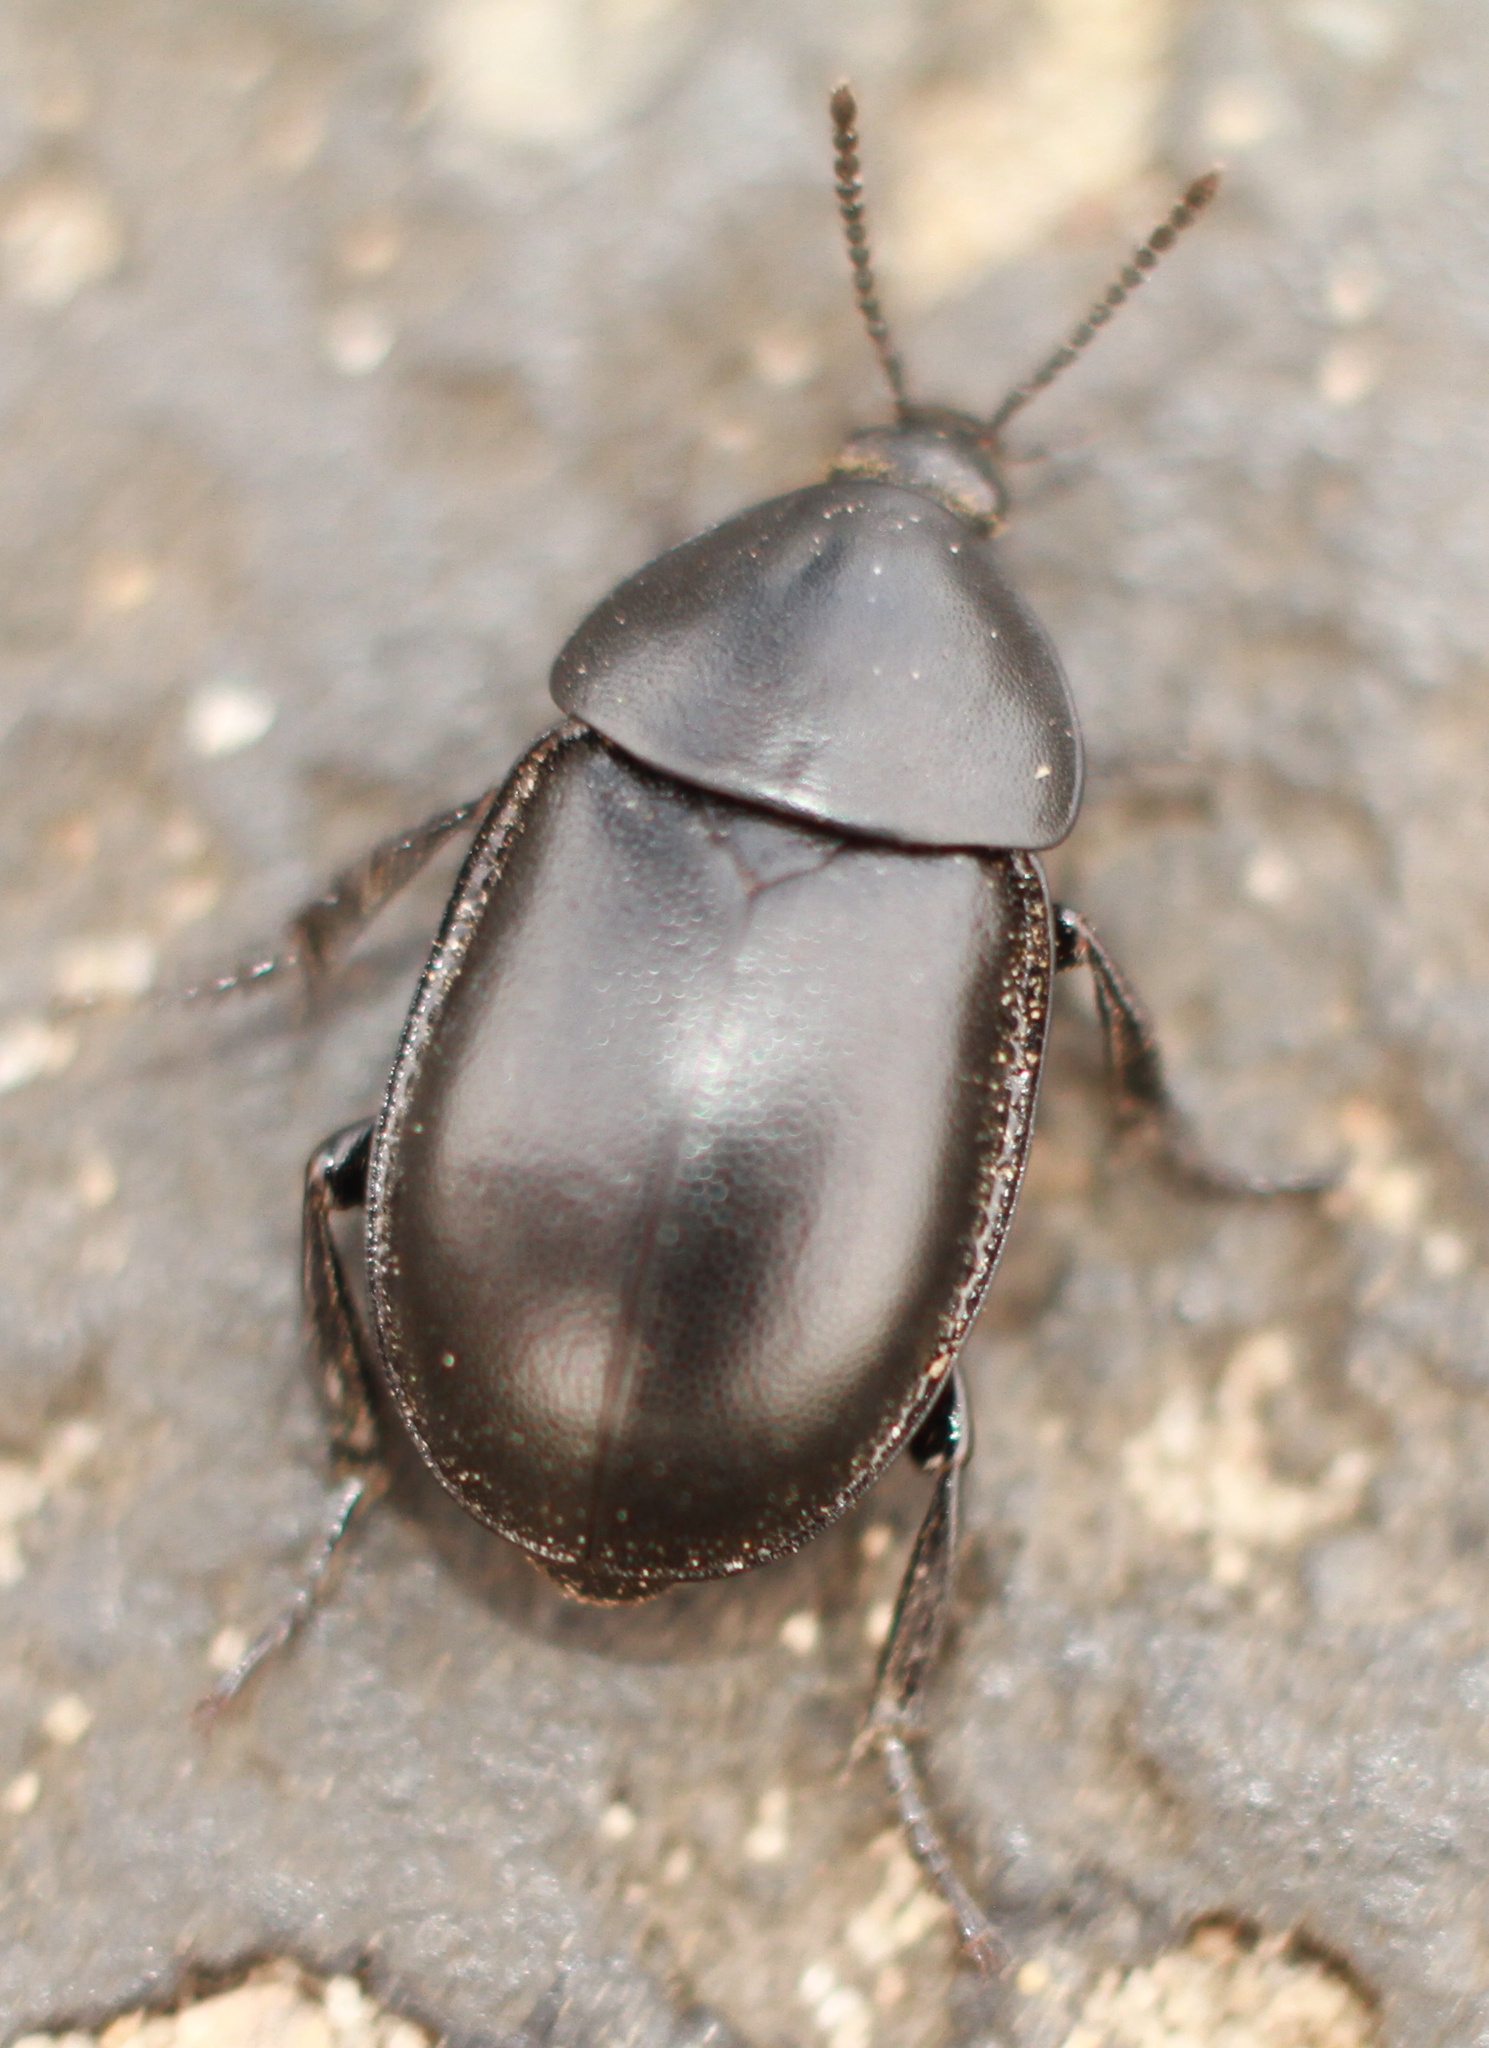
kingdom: Animalia
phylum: Arthropoda
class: Insecta
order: Coleoptera
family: Staphylinidae
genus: Silpha
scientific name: Silpha laevigata
